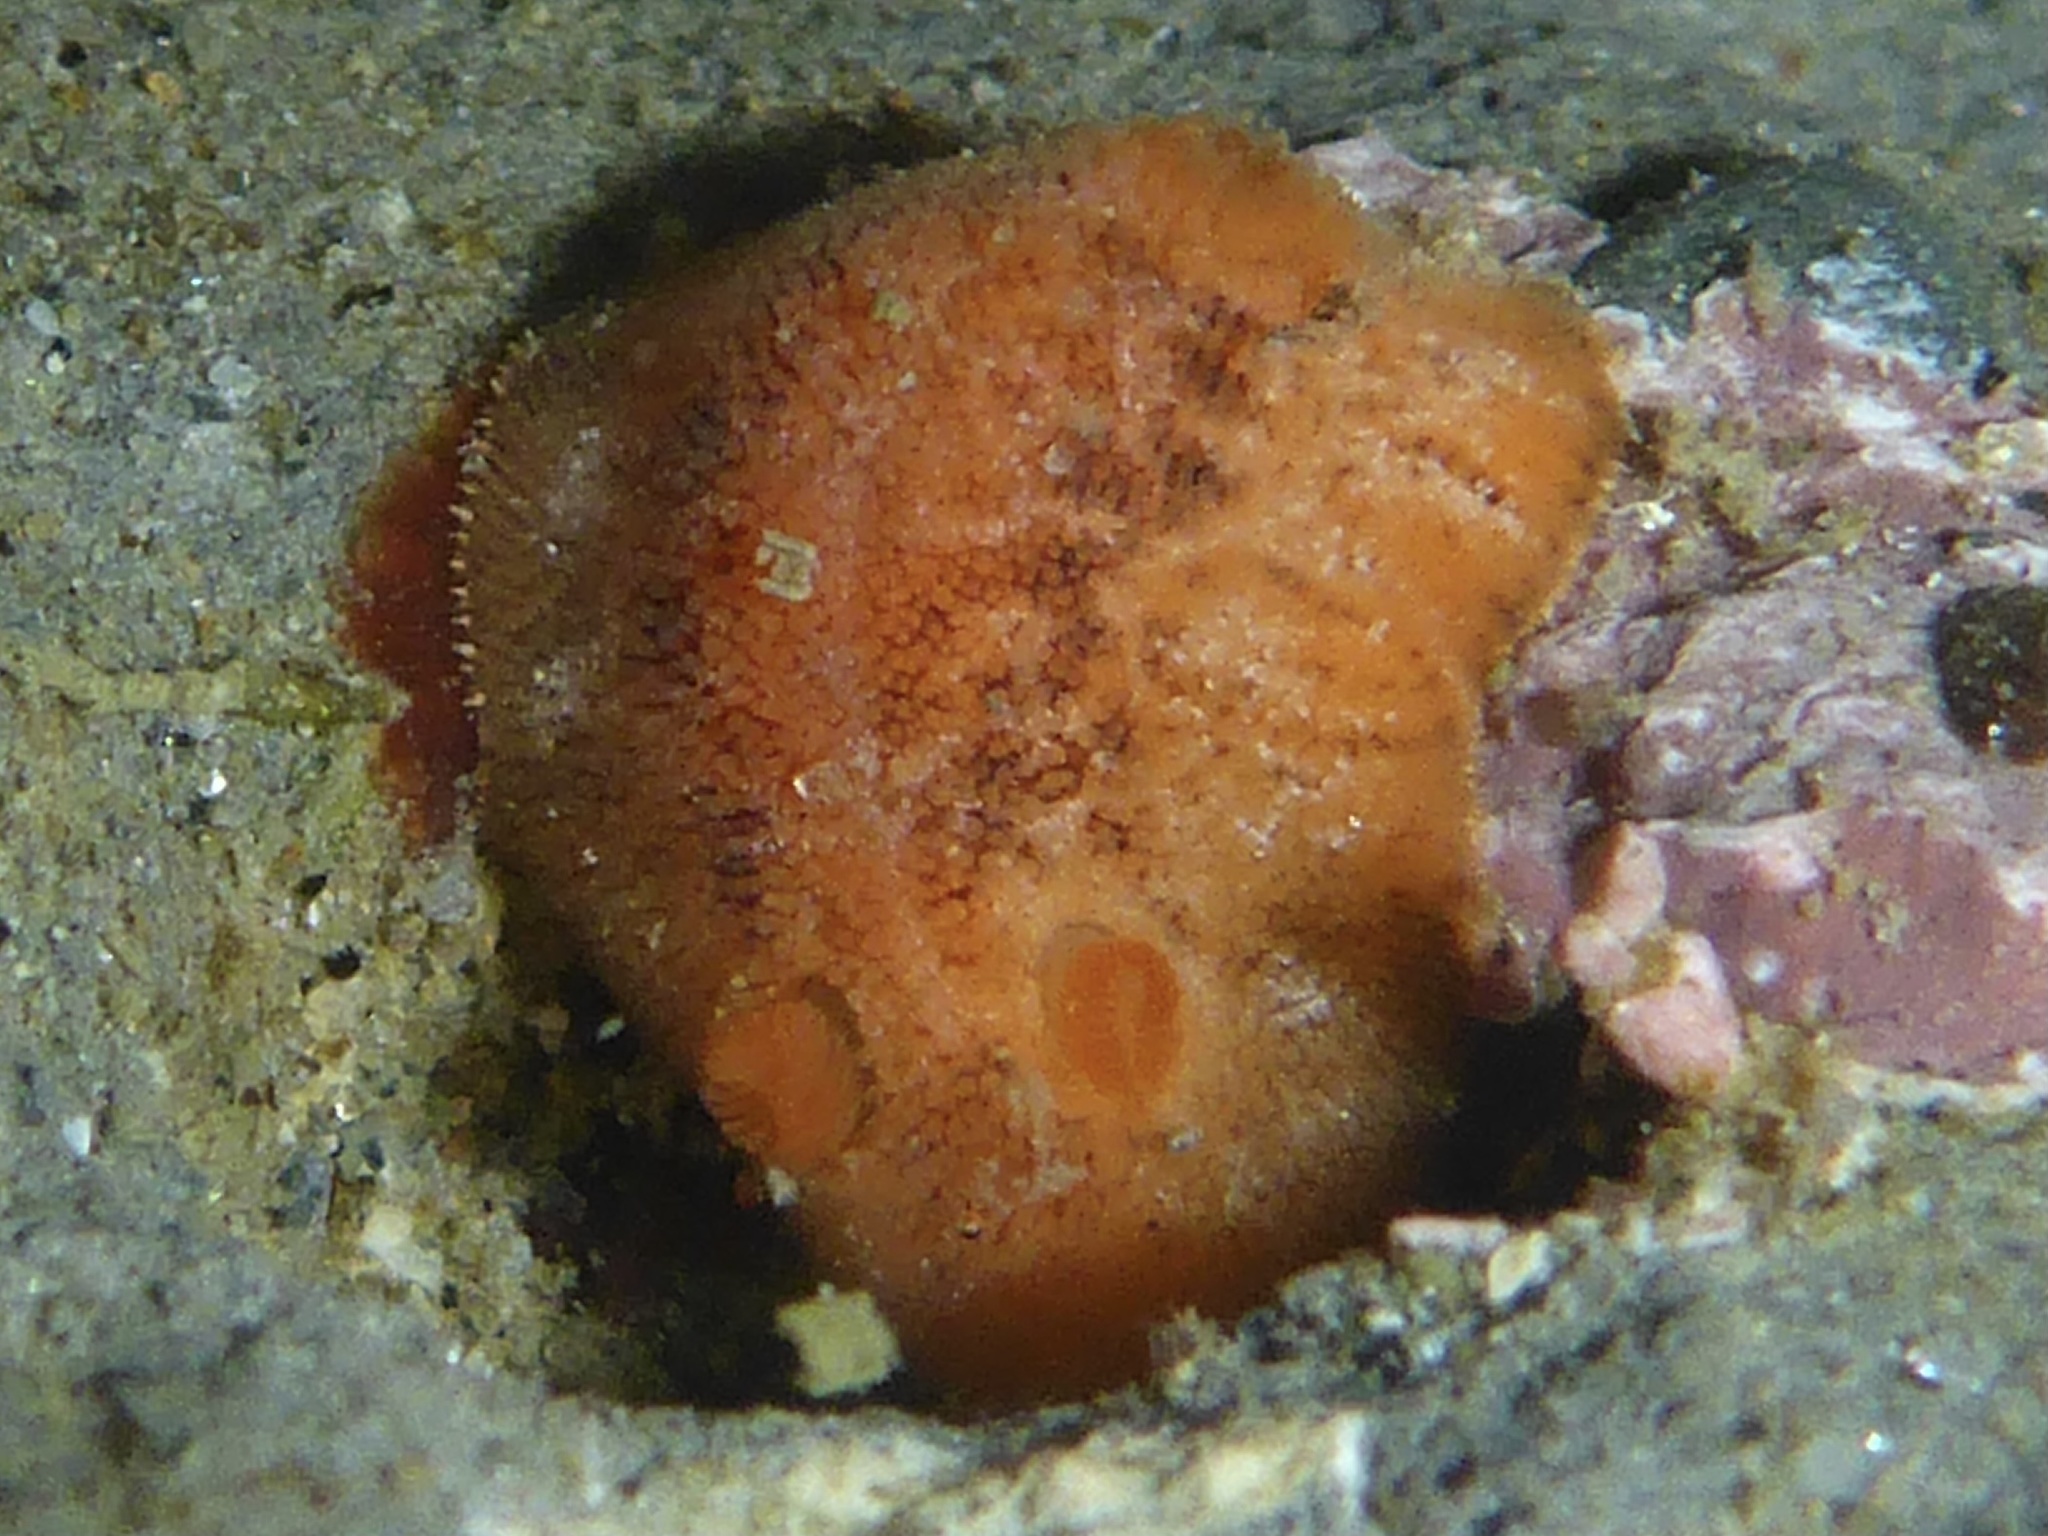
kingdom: Animalia
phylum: Mollusca
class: Gastropoda
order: Nudibranchia
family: Discodorididae
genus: Rostanga
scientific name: Rostanga pulchra
